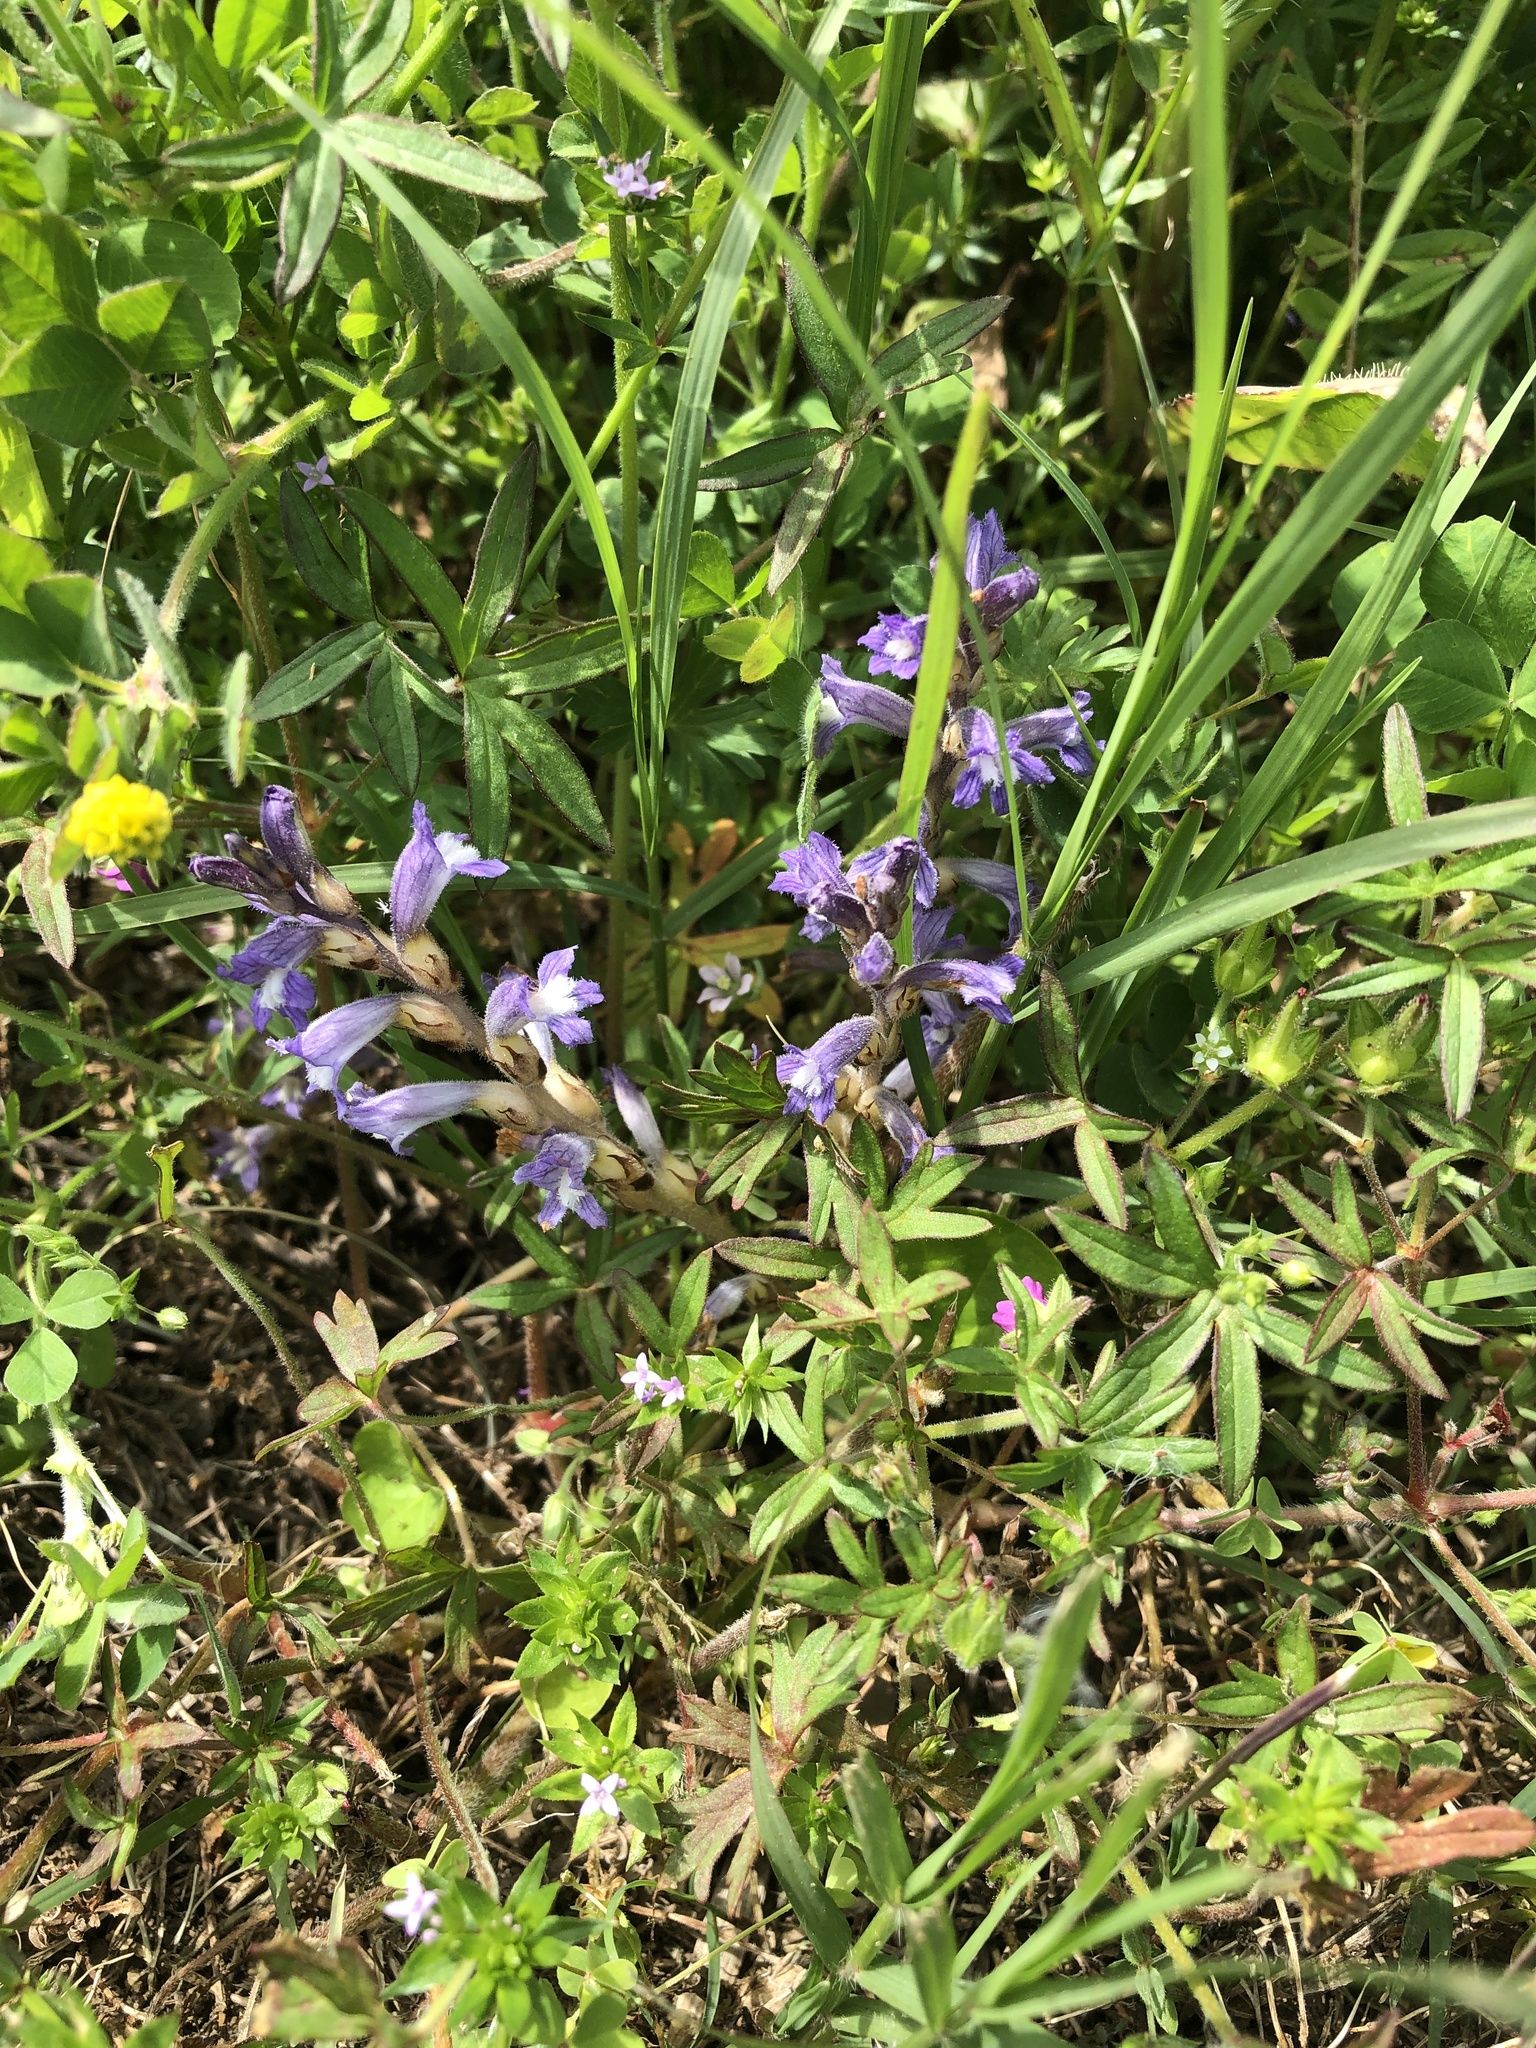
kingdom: Plantae
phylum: Tracheophyta
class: Magnoliopsida
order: Lamiales
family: Orobanchaceae
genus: Phelipanche
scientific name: Phelipanche mutelii
